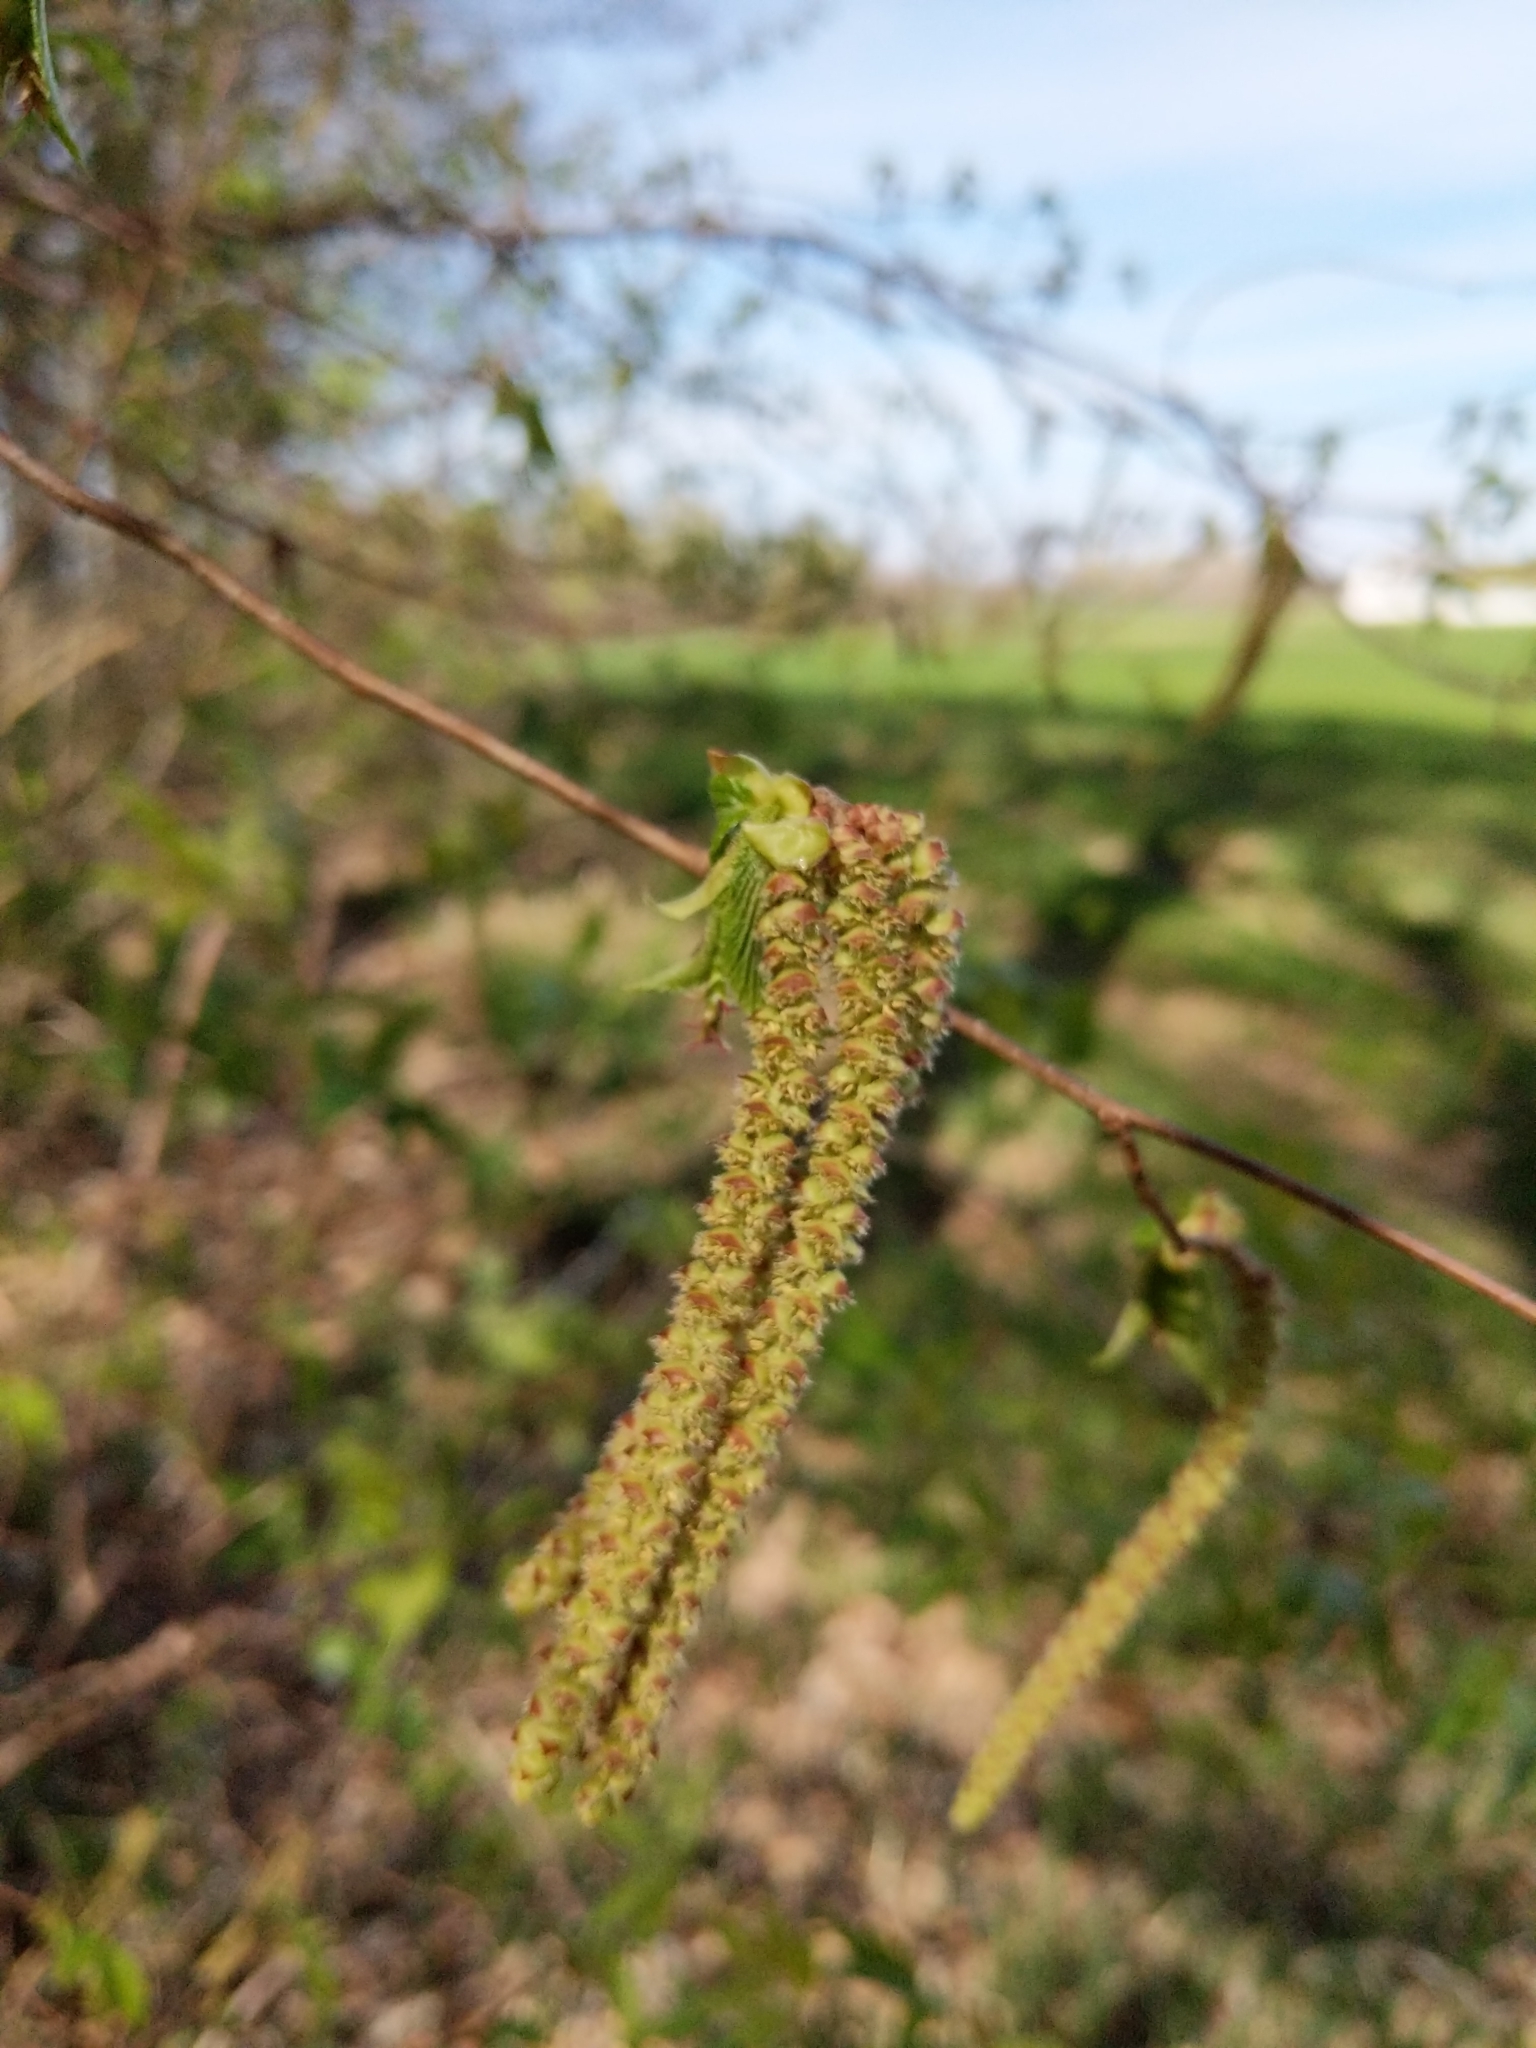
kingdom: Plantae
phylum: Tracheophyta
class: Magnoliopsida
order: Fagales
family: Betulaceae
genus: Ostrya
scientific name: Ostrya virginiana
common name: Ironwood
